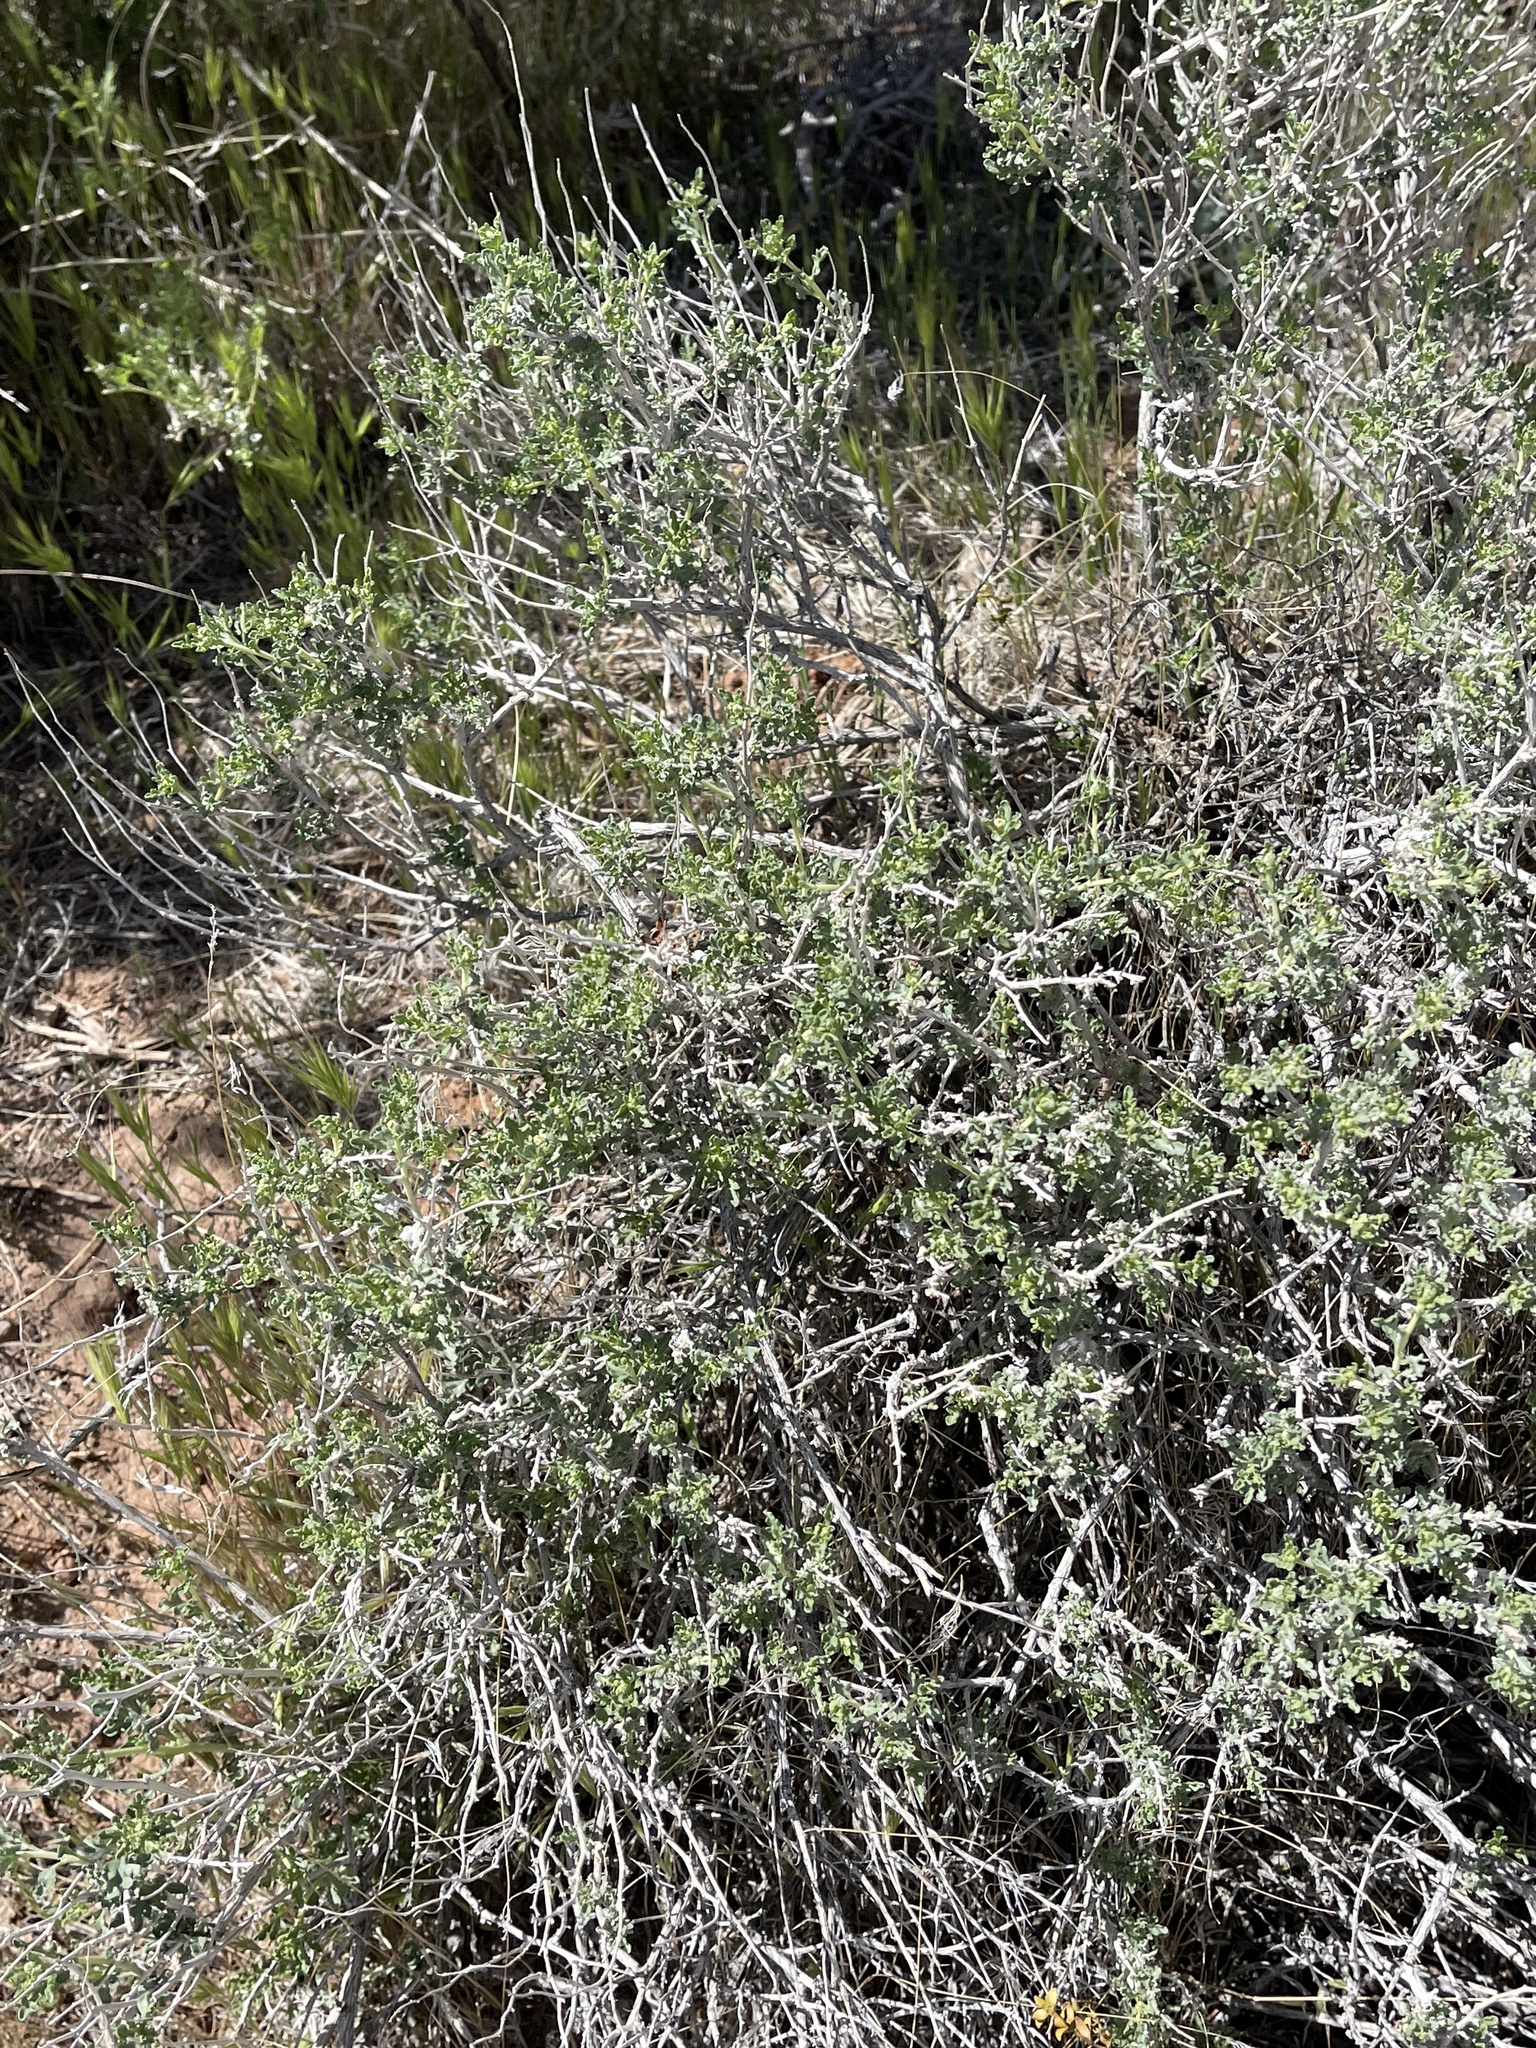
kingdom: Plantae
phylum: Tracheophyta
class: Magnoliopsida
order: Asterales
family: Asteraceae
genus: Ambrosia
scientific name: Ambrosia dumosa
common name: Bur-sage
